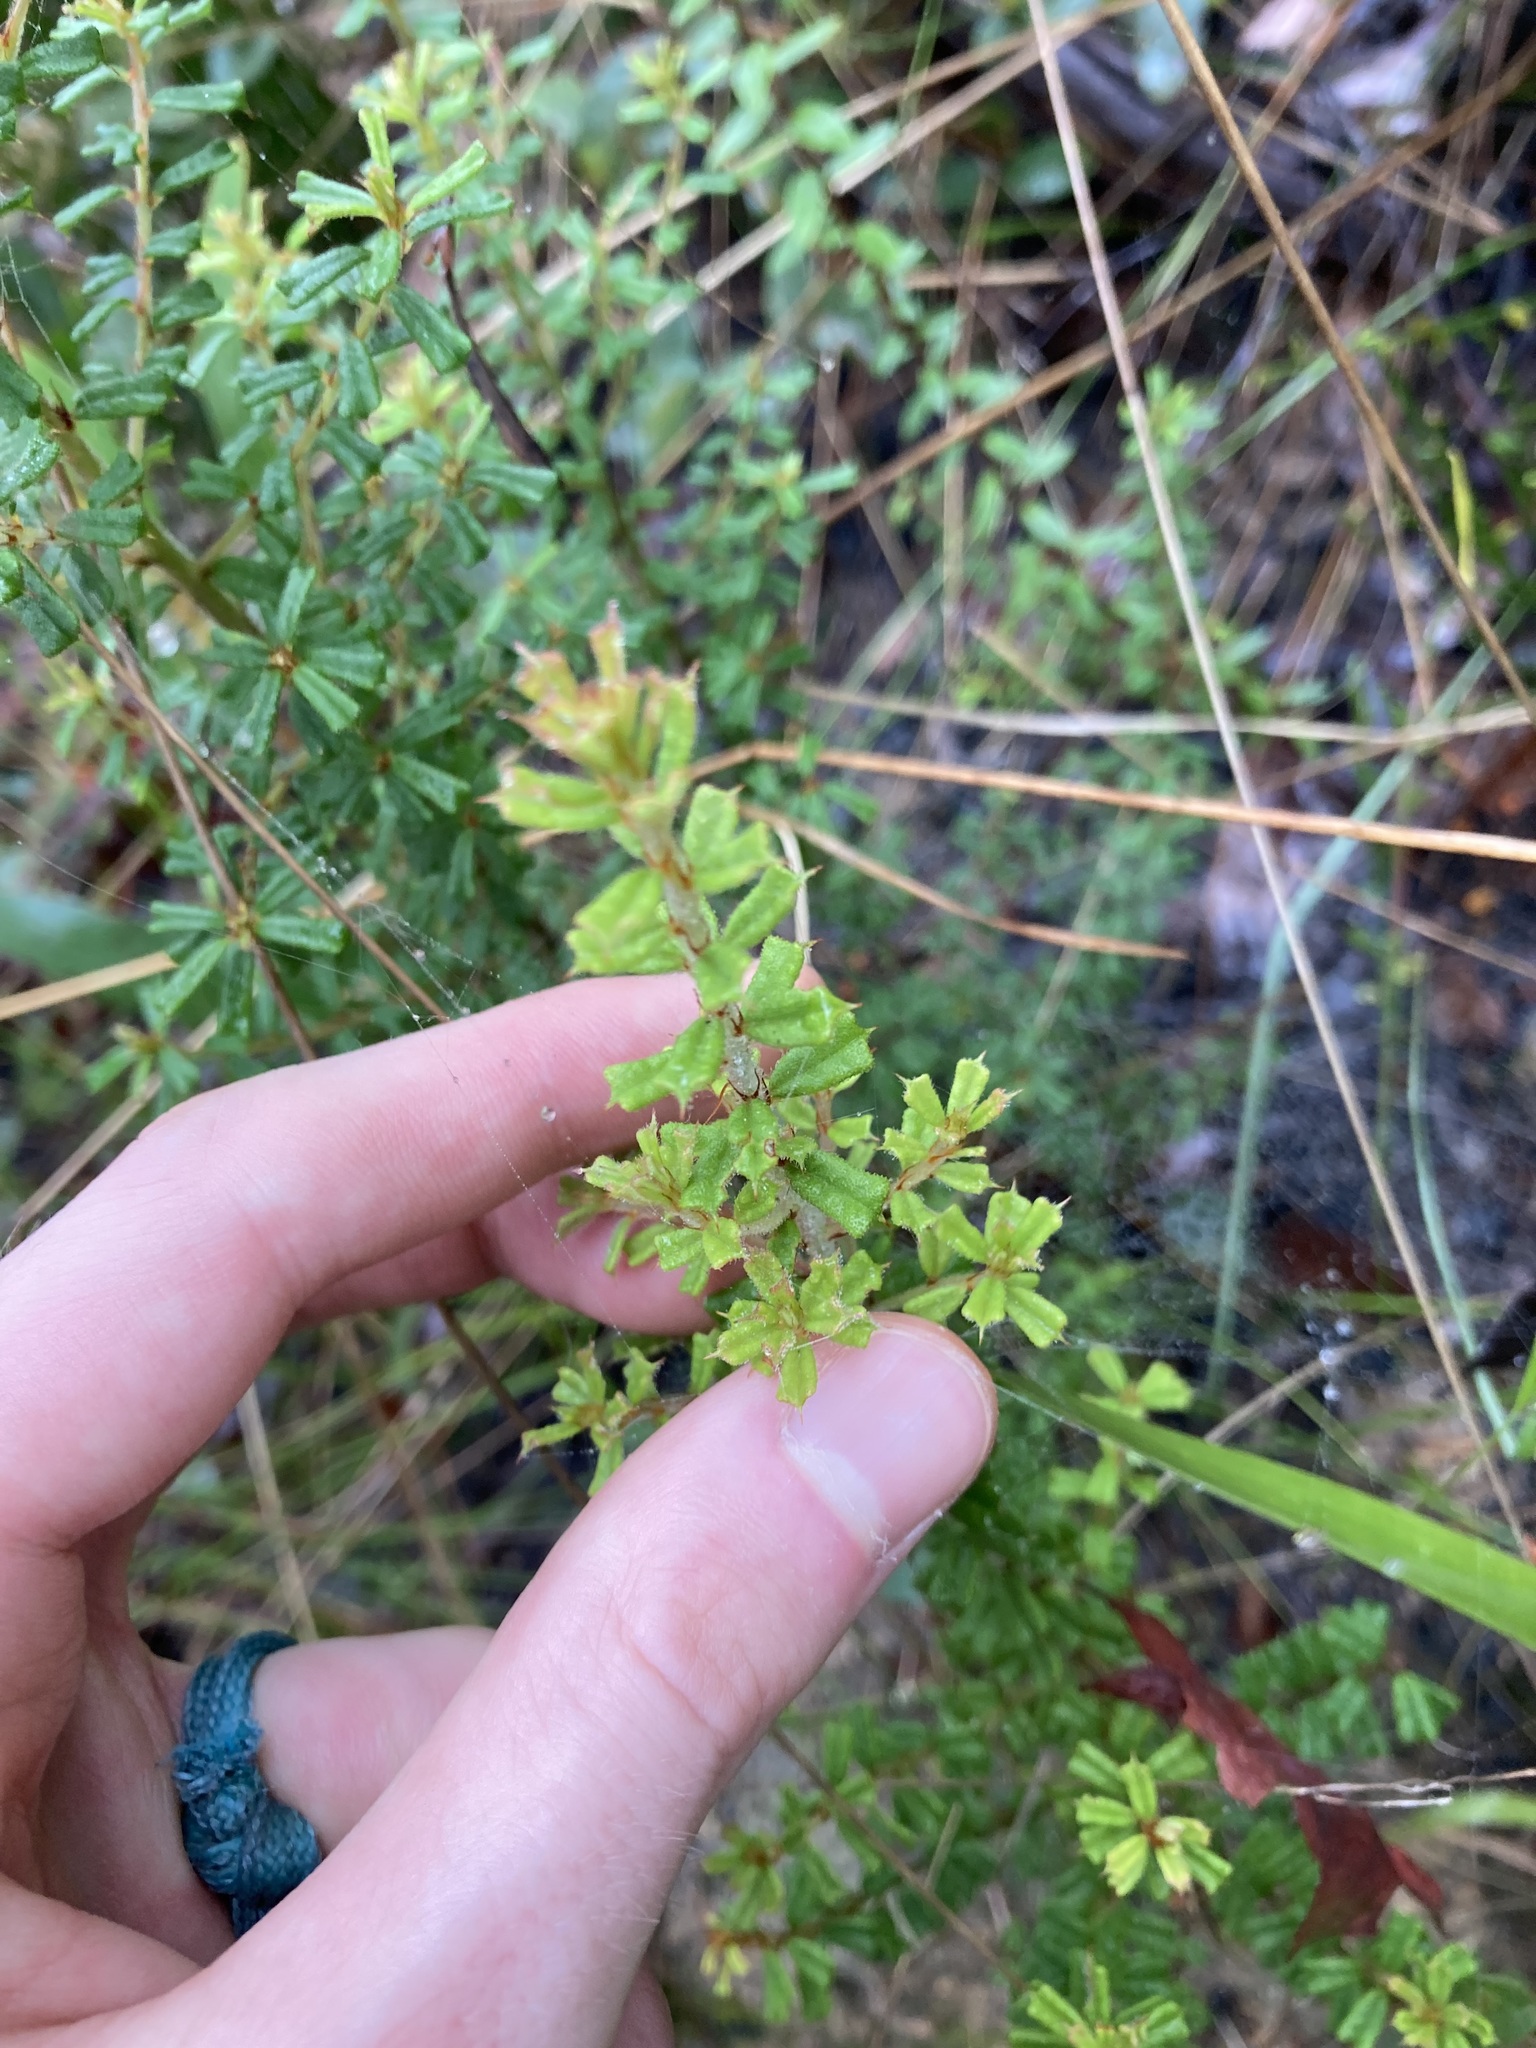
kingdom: Plantae
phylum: Tracheophyta
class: Magnoliopsida
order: Fabales
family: Fabaceae
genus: Pultenaea
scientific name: Pultenaea scabra
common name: Rough bush-pea
